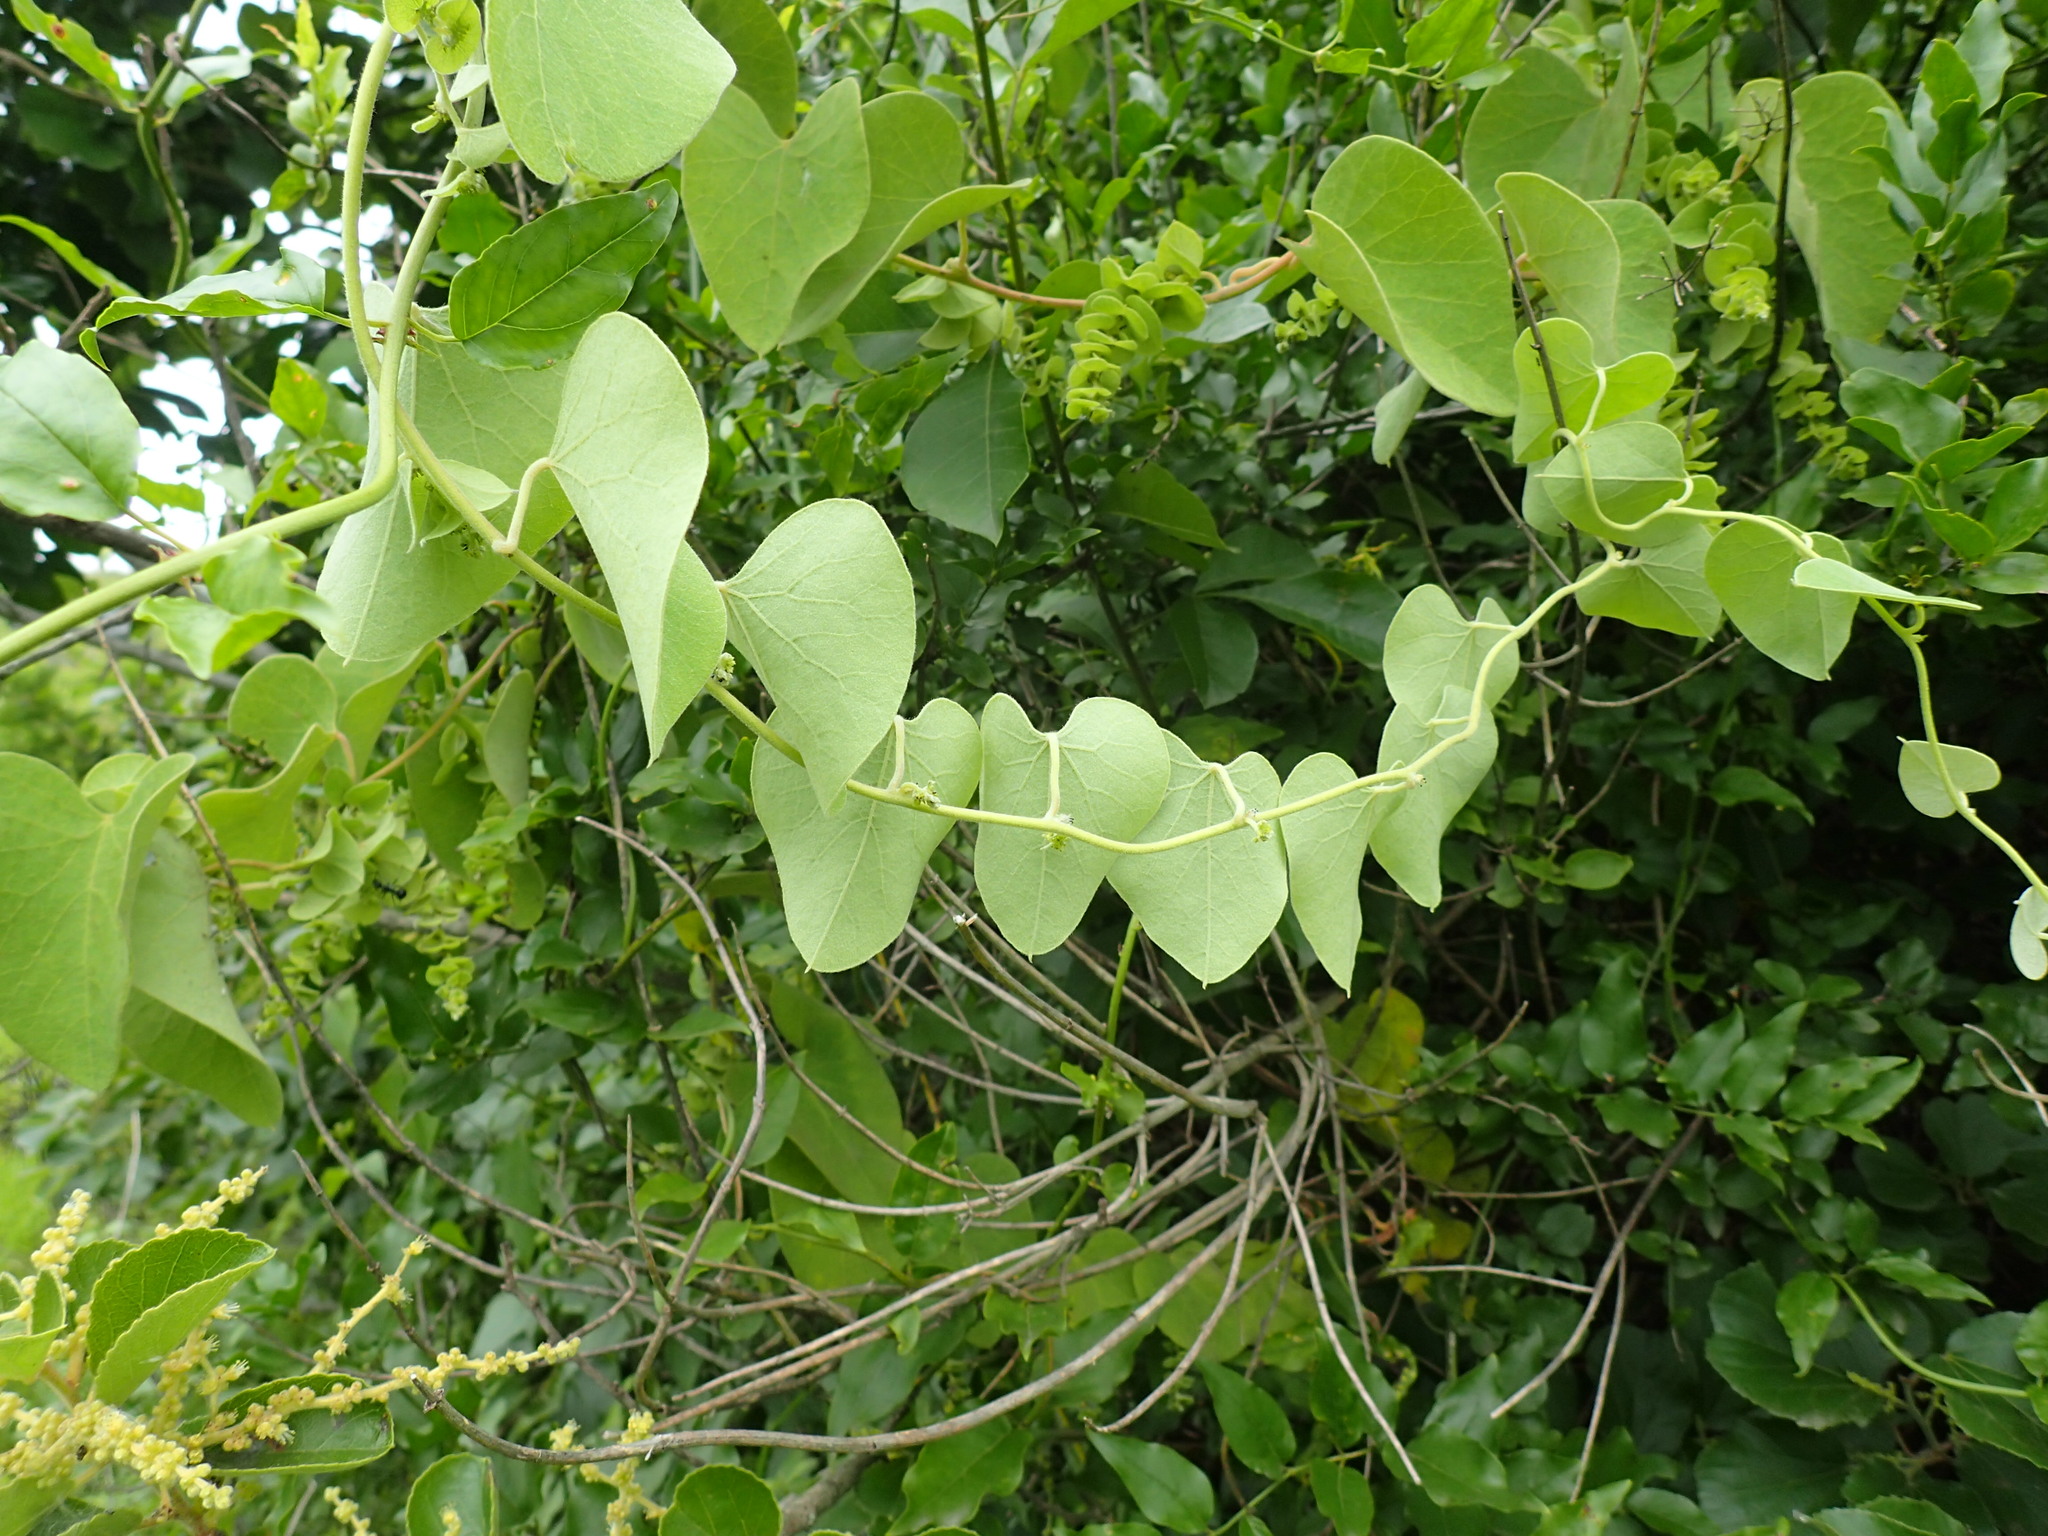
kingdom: Plantae
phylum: Tracheophyta
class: Magnoliopsida
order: Ranunculales
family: Menispermaceae
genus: Cissampelos
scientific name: Cissampelos mucronata
